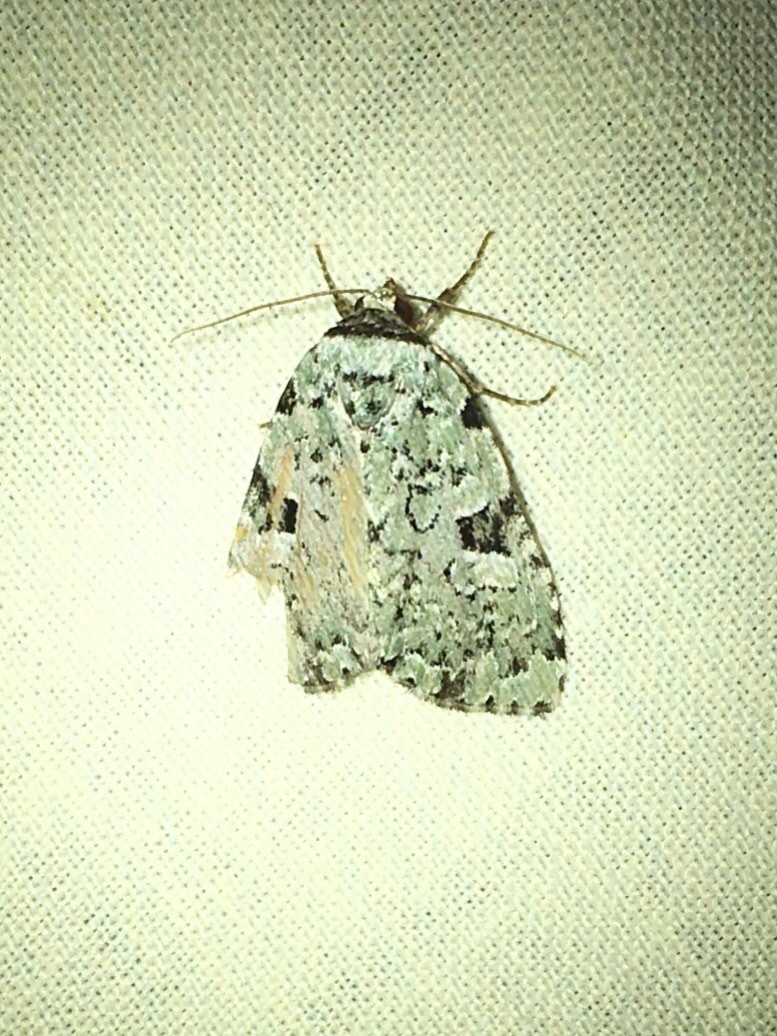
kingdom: Animalia
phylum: Arthropoda
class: Insecta
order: Lepidoptera
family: Noctuidae
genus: Leuconycta
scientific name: Leuconycta diphteroides
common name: Green leuconycta moth
